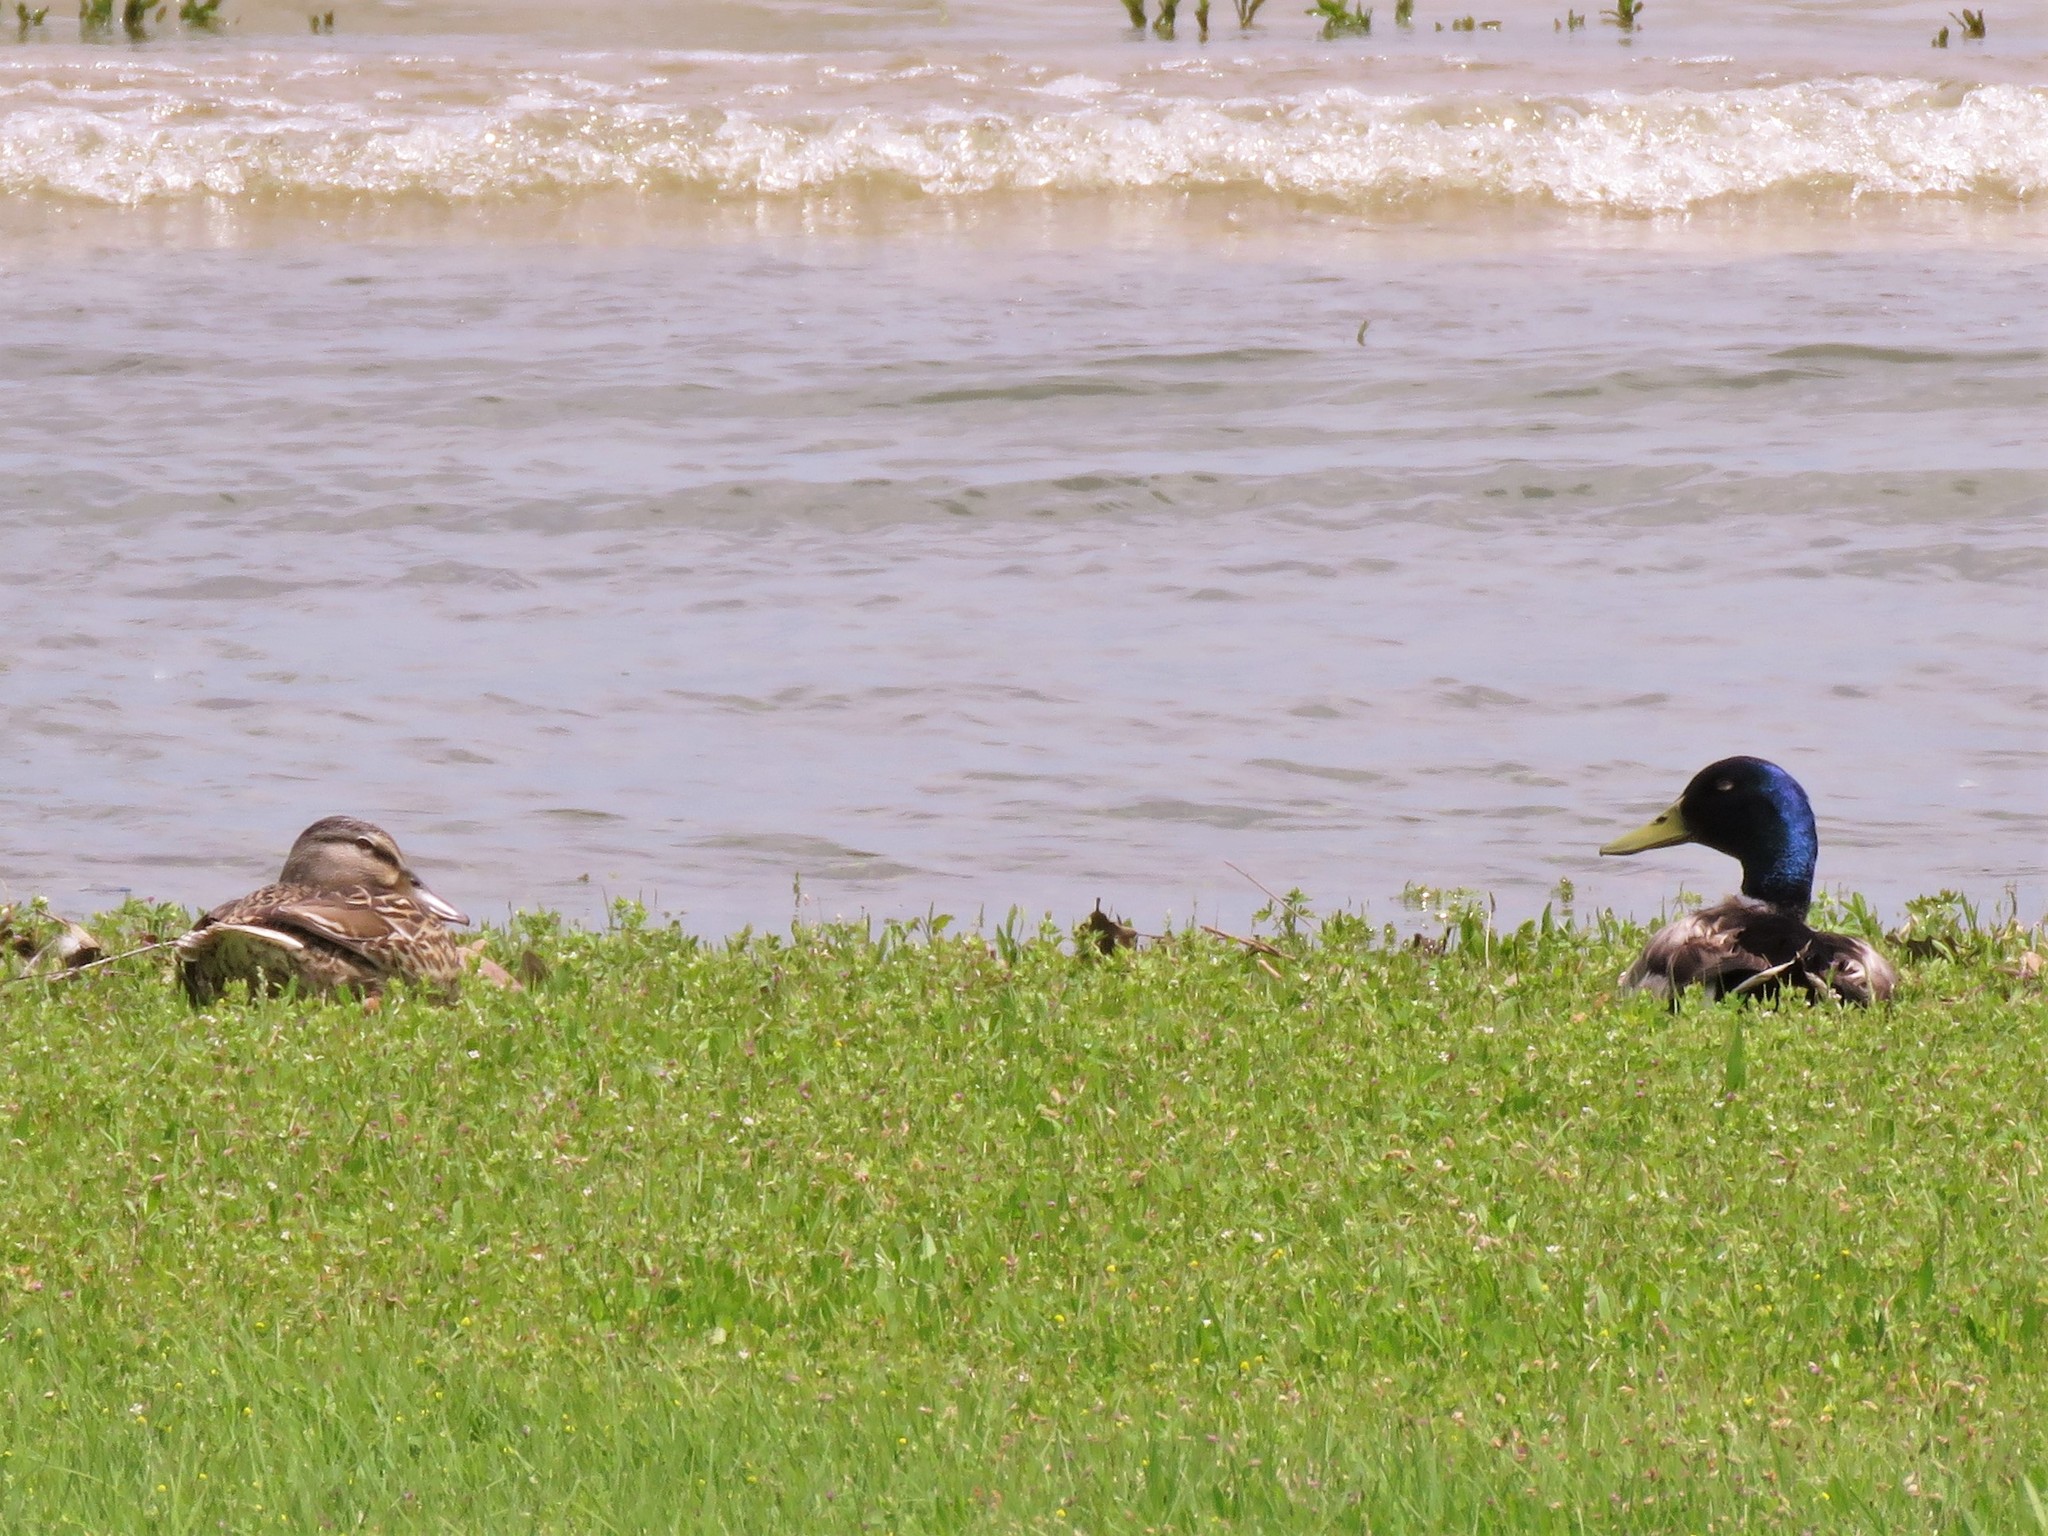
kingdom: Animalia
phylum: Chordata
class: Aves
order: Anseriformes
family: Anatidae
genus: Anas
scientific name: Anas platyrhynchos
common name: Mallard
